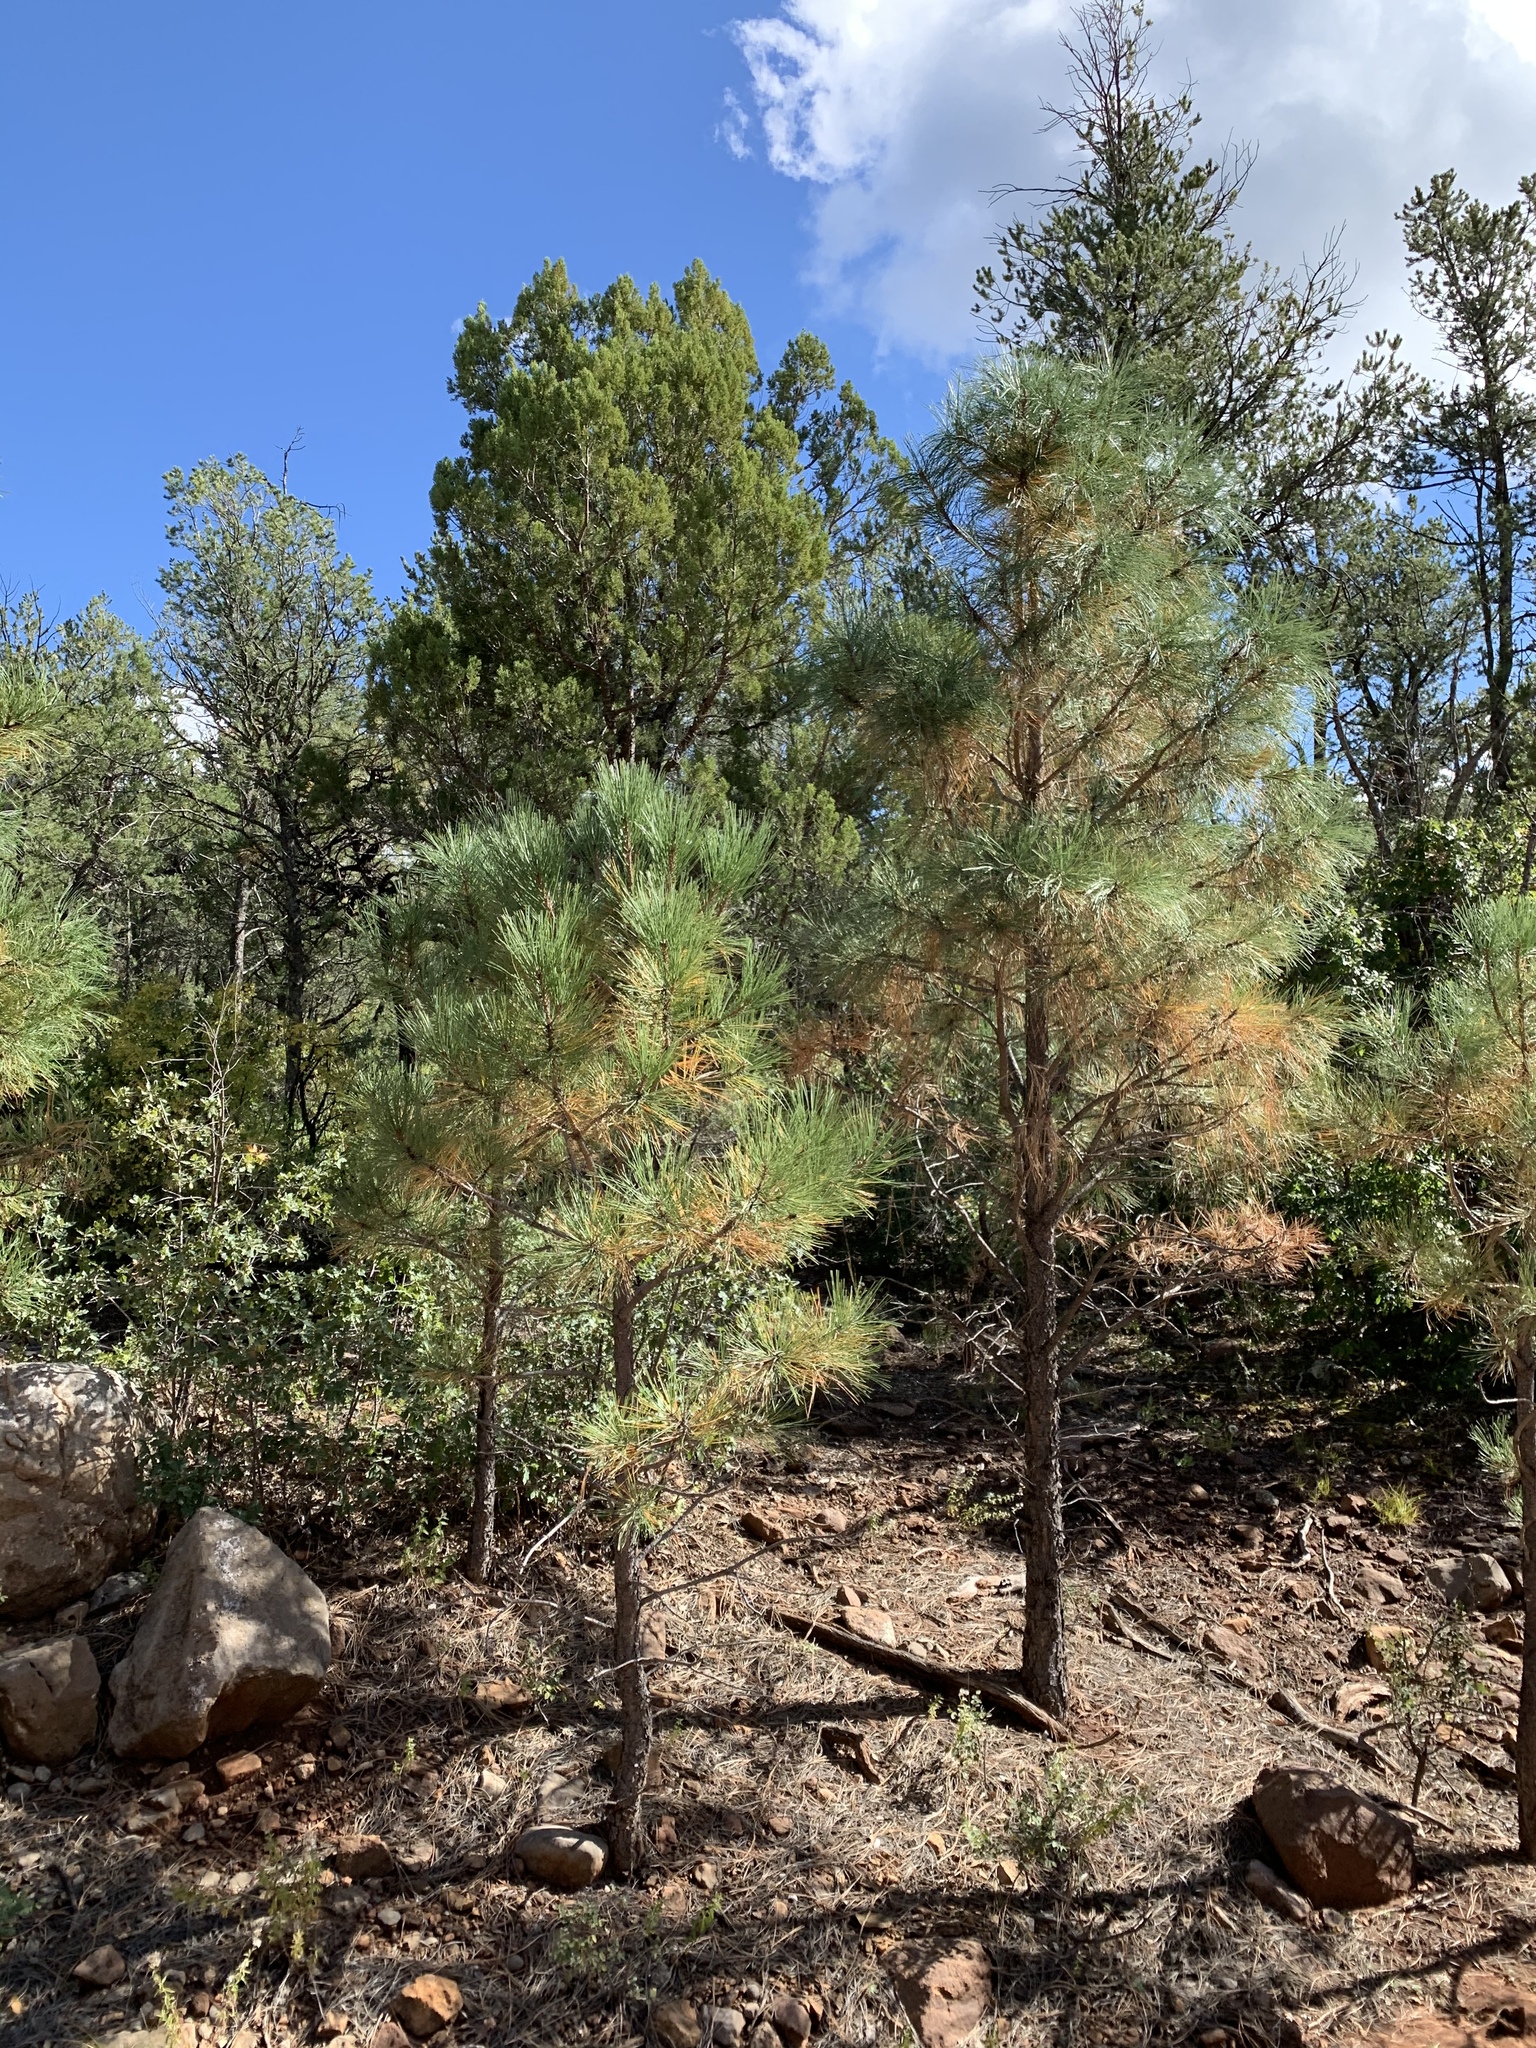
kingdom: Plantae
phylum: Tracheophyta
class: Pinopsida
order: Pinales
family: Pinaceae
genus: Pinus
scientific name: Pinus ponderosa
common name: Western yellow-pine
